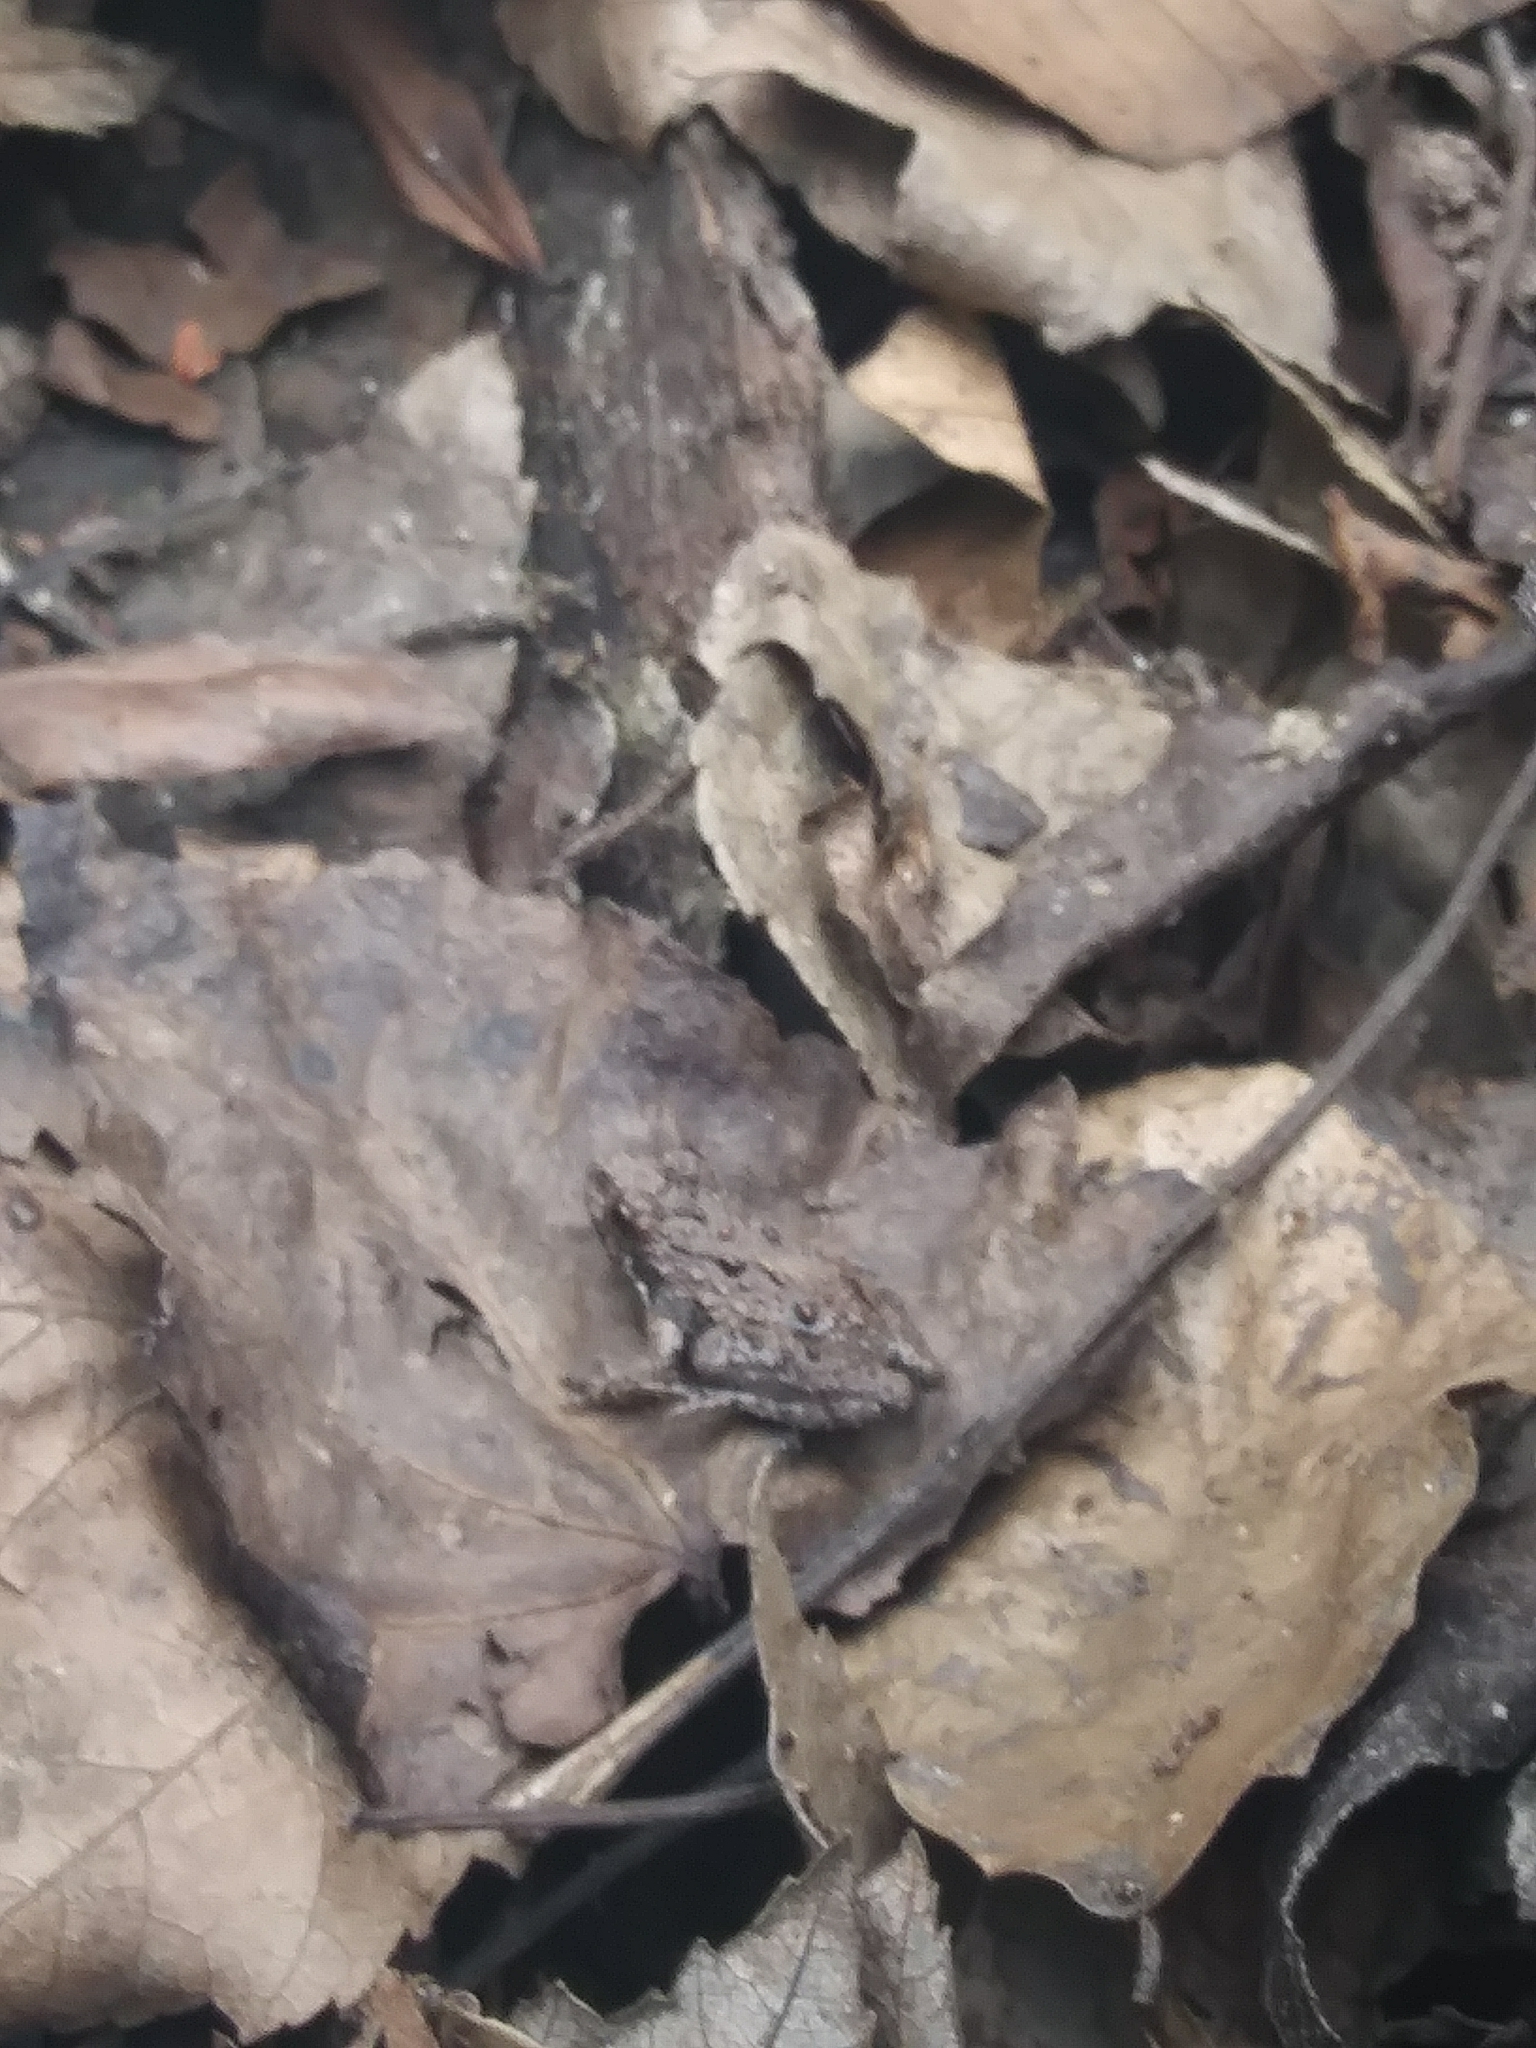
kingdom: Animalia
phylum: Chordata
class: Amphibia
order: Anura
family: Hylidae
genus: Acris
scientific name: Acris crepitans
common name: Northern cricket frog
